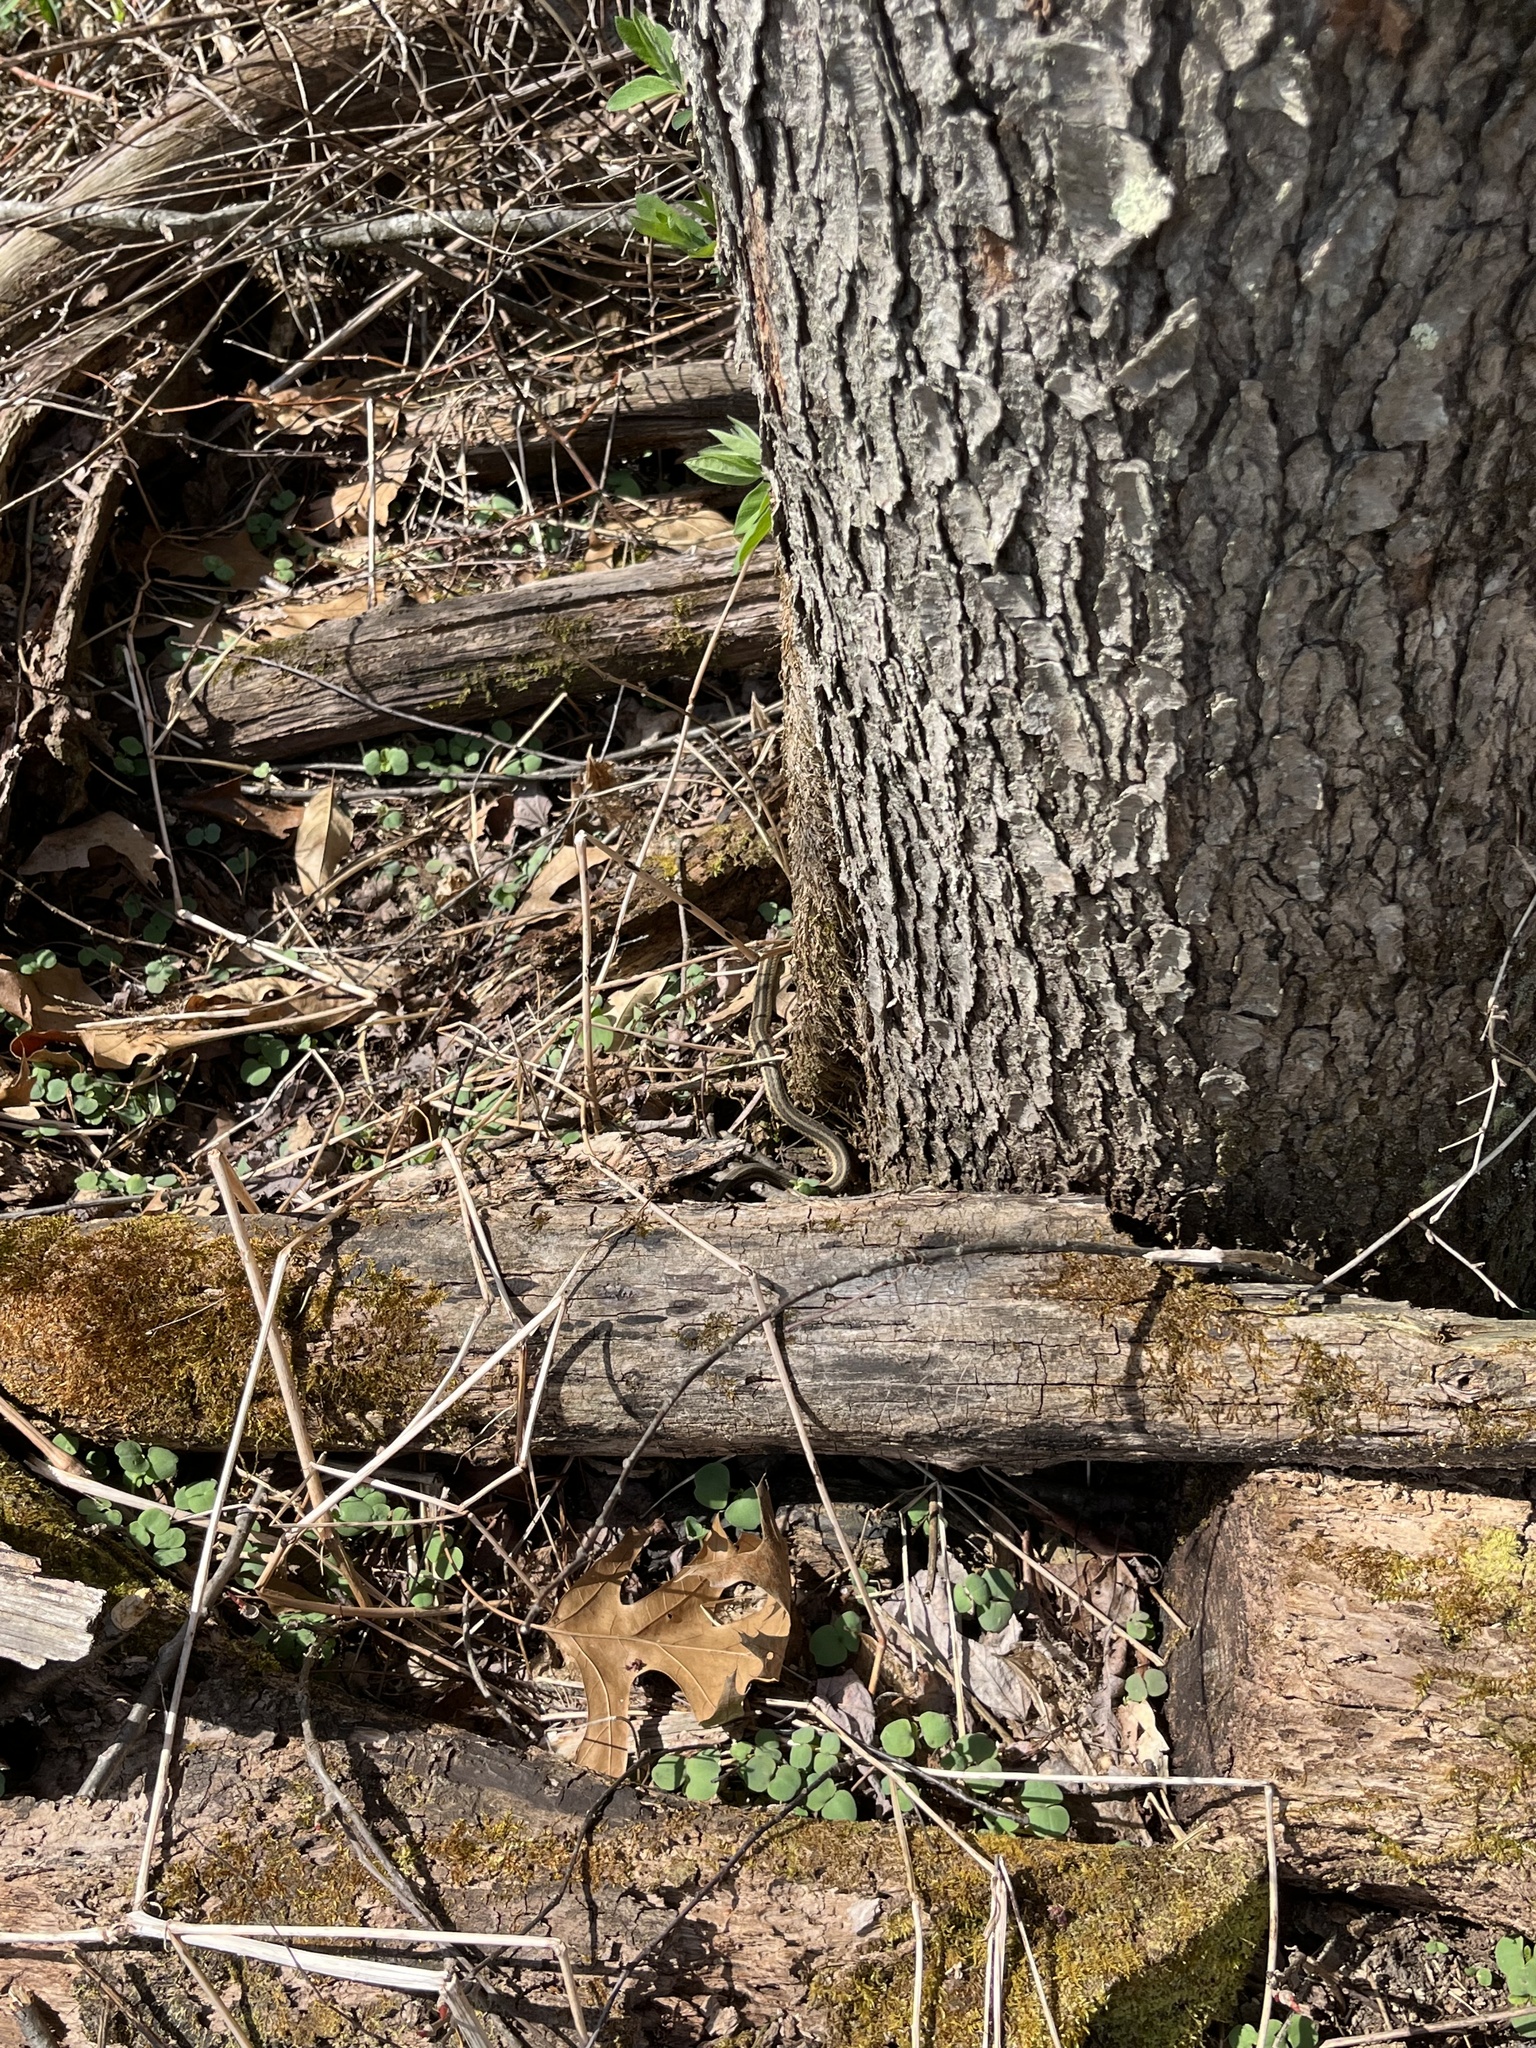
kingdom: Animalia
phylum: Chordata
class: Squamata
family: Colubridae
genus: Thamnophis
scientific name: Thamnophis sirtalis
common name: Common garter snake
